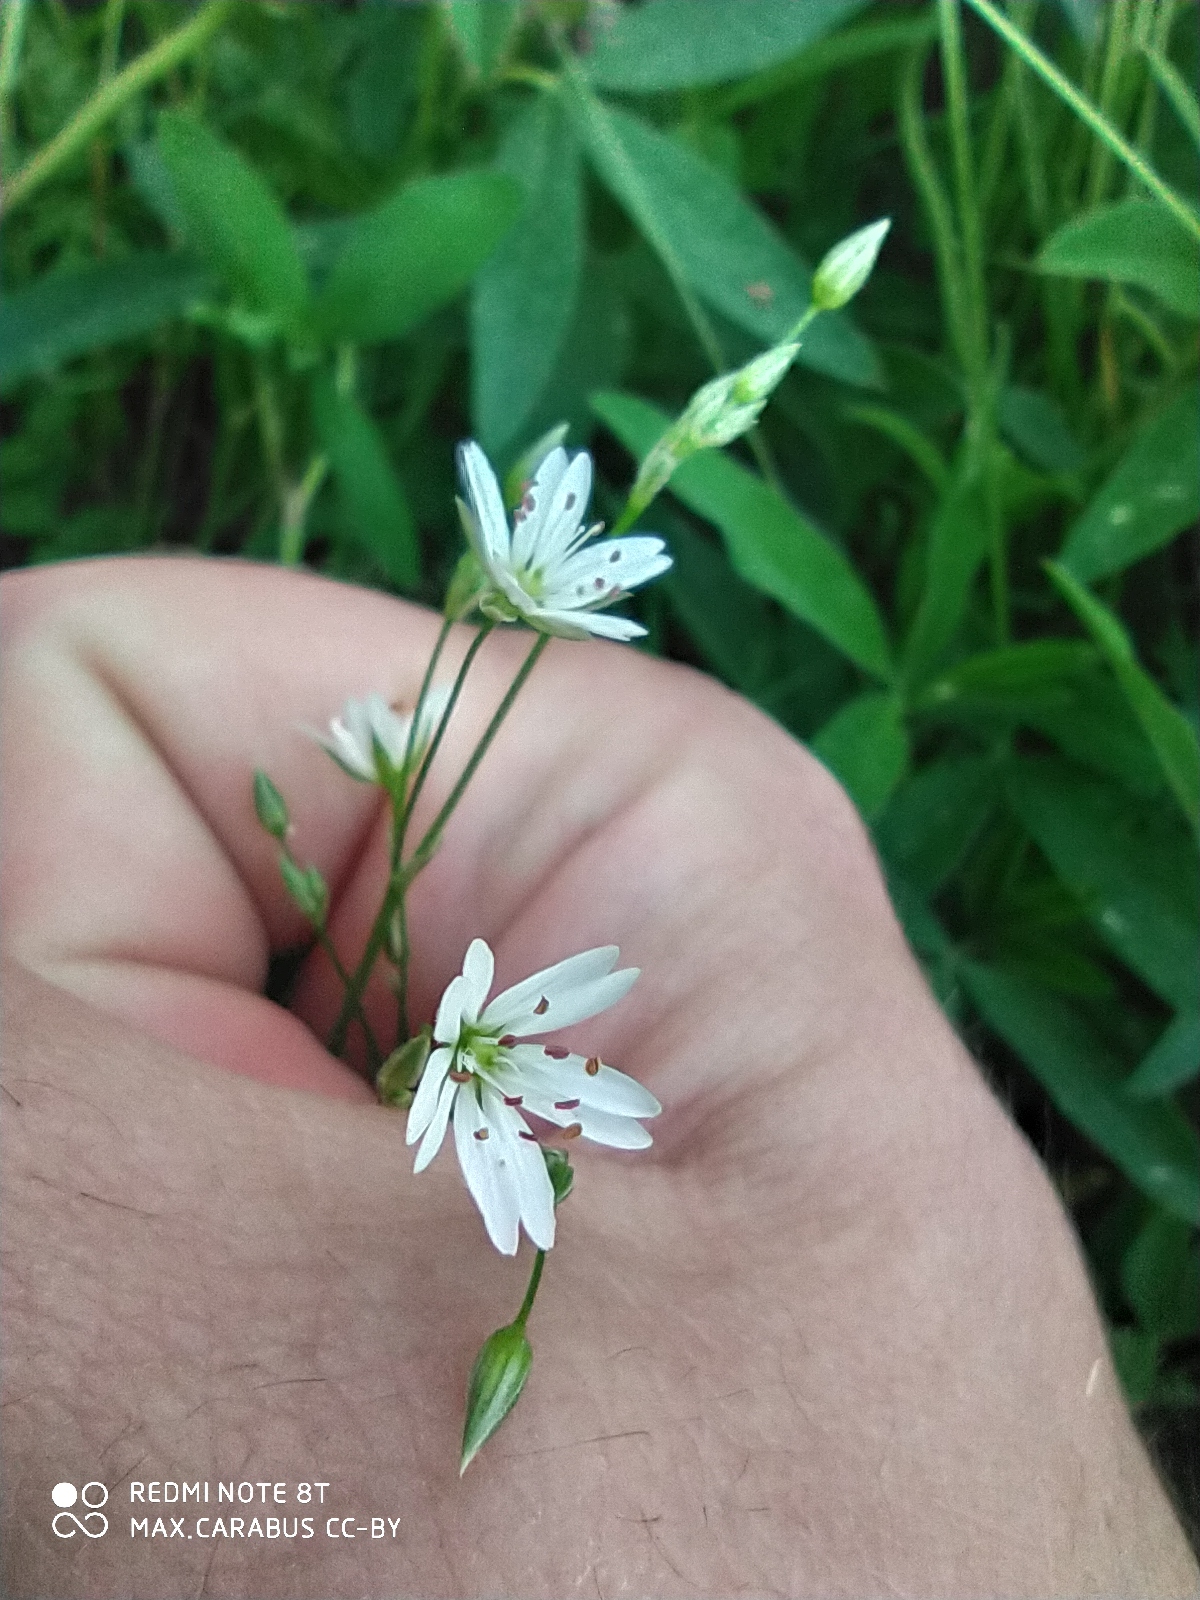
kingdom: Plantae
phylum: Tracheophyta
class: Magnoliopsida
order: Caryophyllales
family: Caryophyllaceae
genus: Stellaria
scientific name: Stellaria graminea
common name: Grass-like starwort
